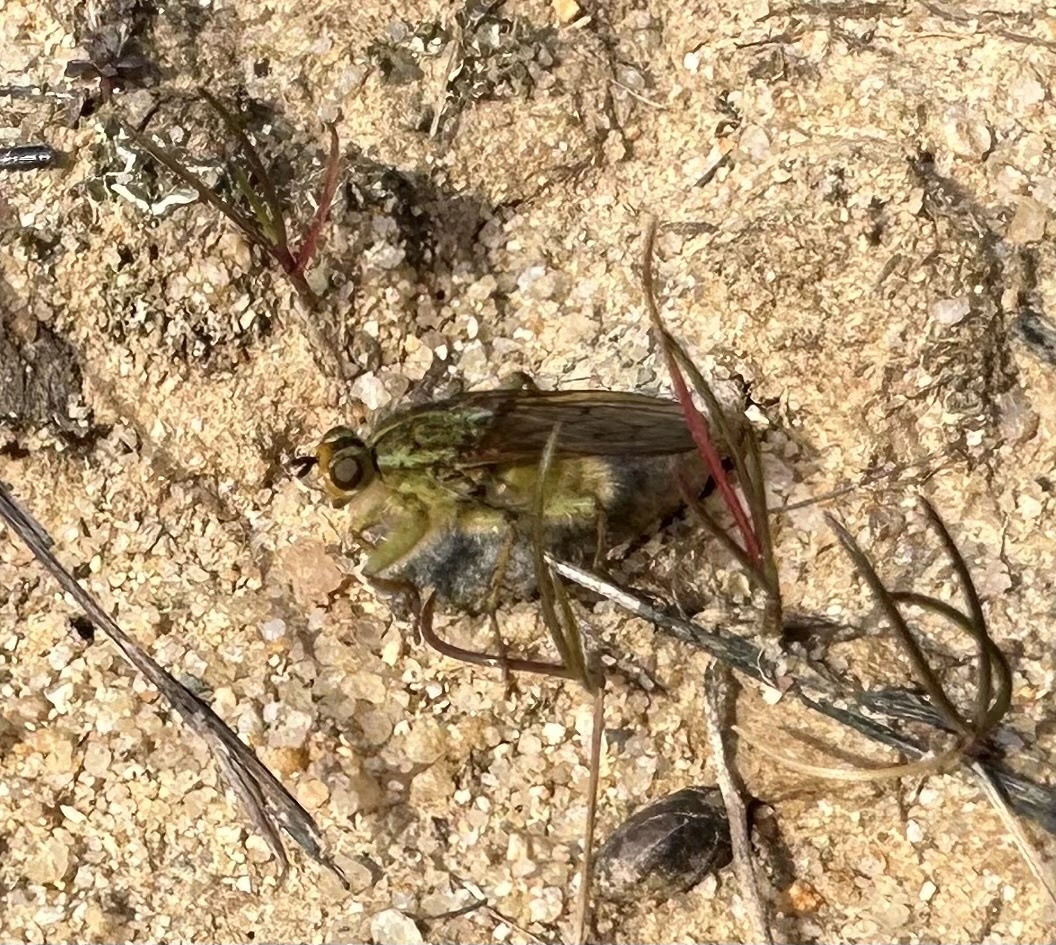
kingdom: Animalia
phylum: Arthropoda
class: Insecta
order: Diptera
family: Scathophagidae
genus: Scathophaga
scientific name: Scathophaga stercoraria
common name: Yellow dung fly
